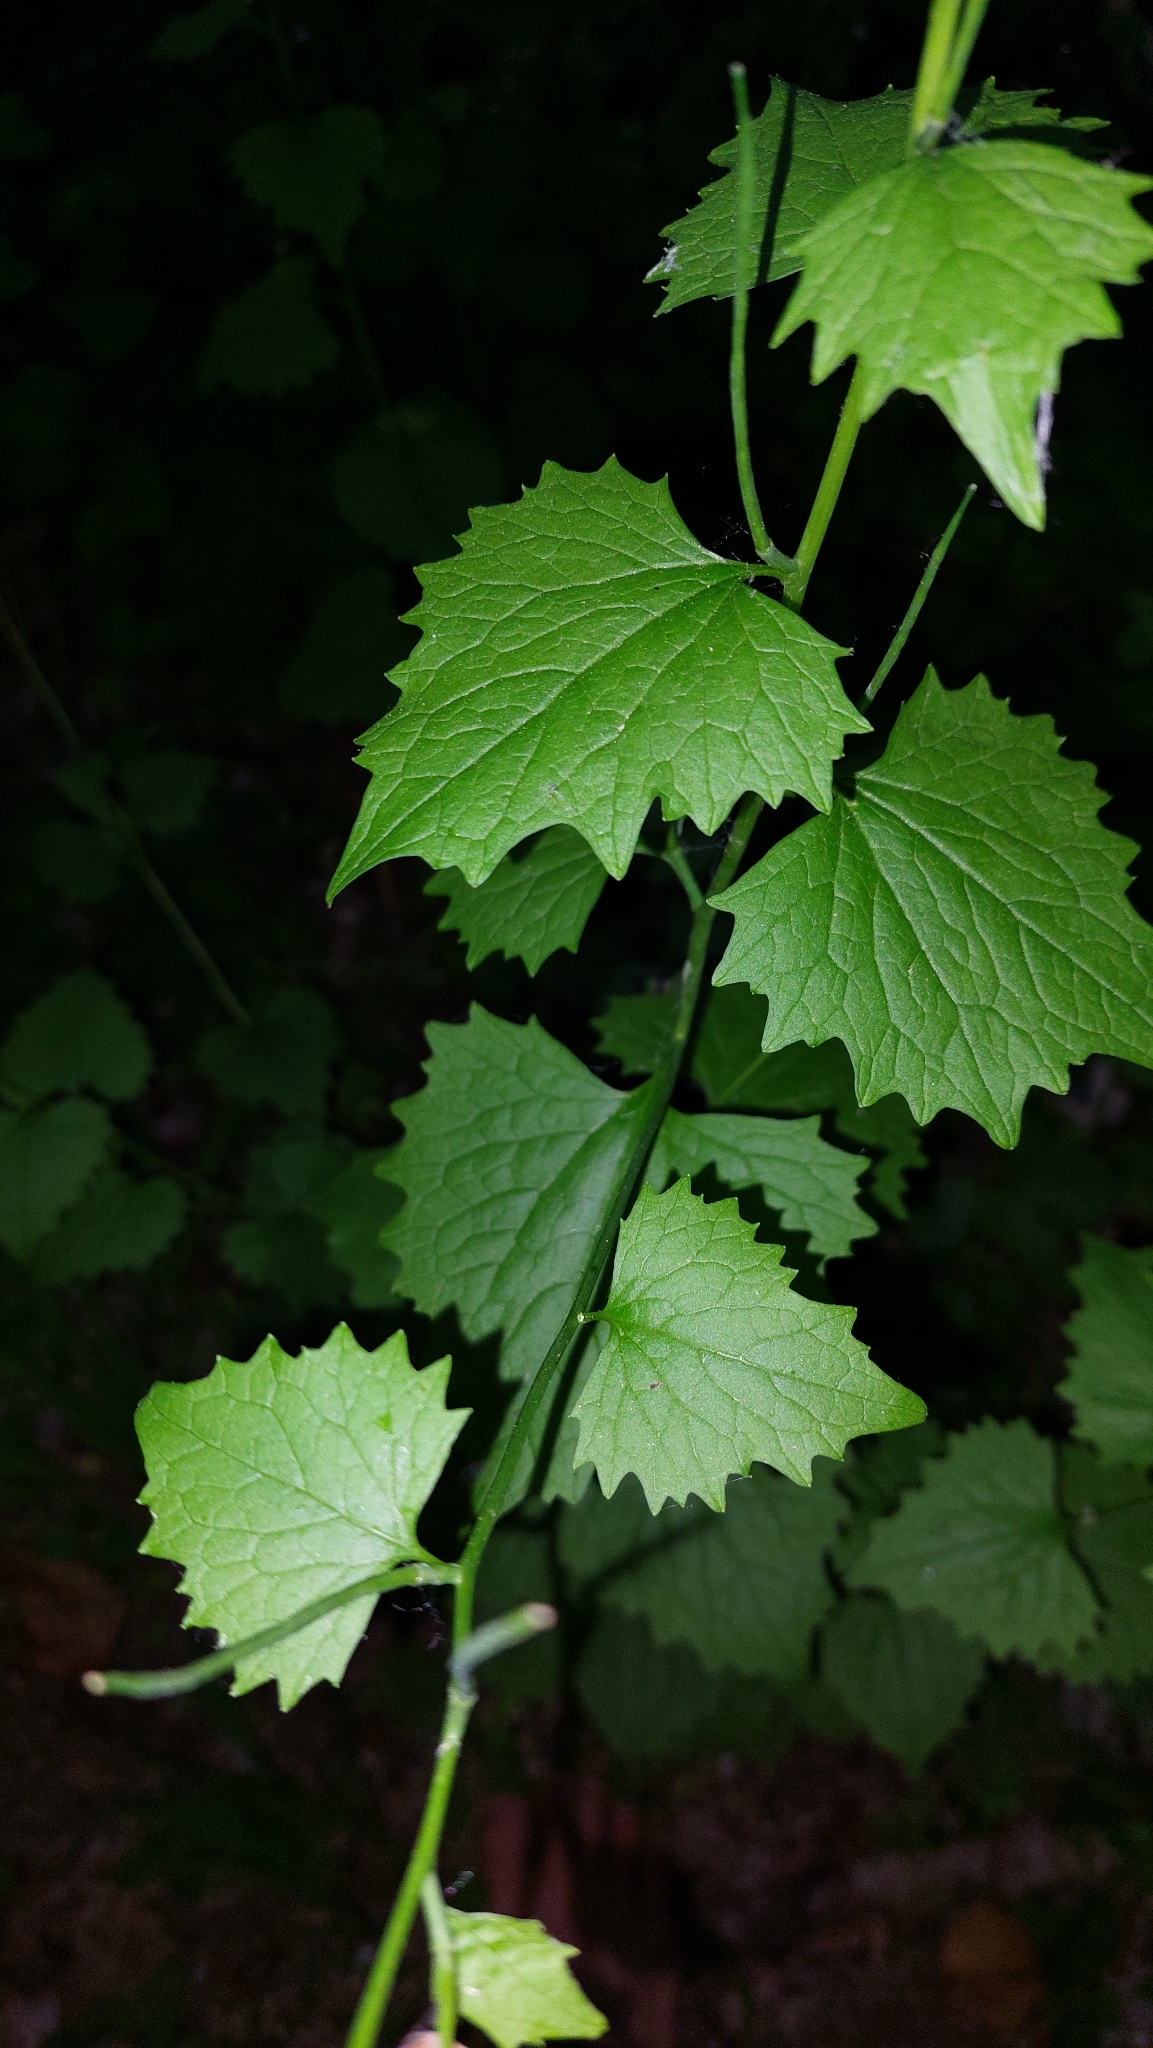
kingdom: Plantae
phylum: Tracheophyta
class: Magnoliopsida
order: Brassicales
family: Brassicaceae
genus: Alliaria
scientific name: Alliaria petiolata
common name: Garlic mustard
